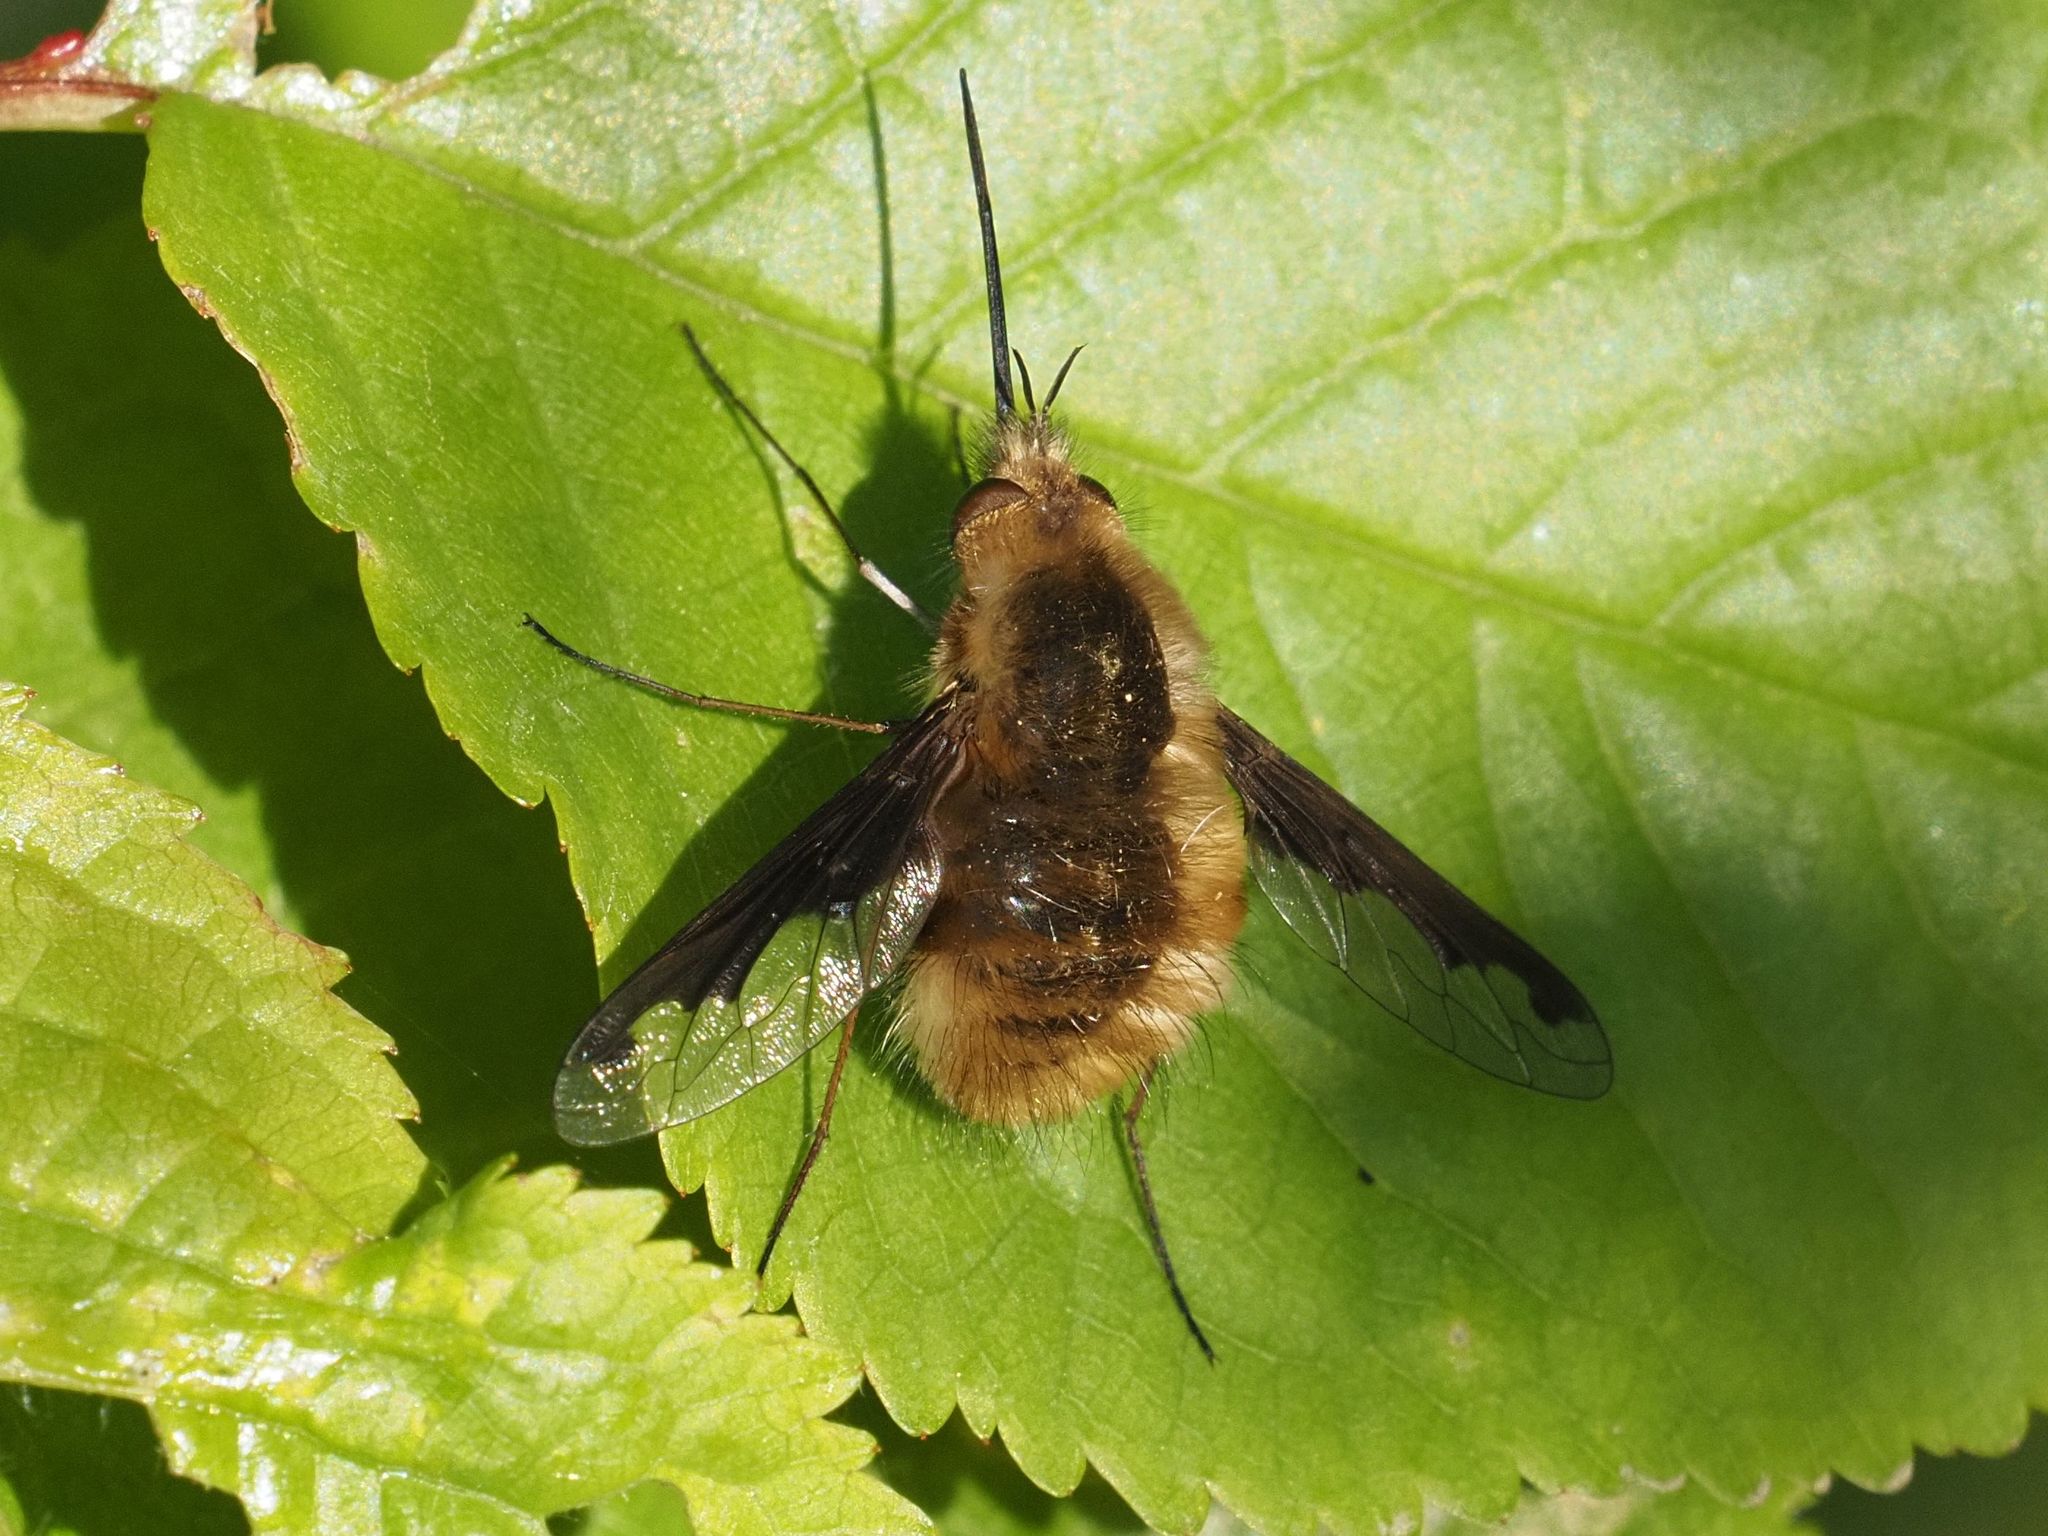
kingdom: Animalia
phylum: Arthropoda
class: Insecta
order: Diptera
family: Bombyliidae
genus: Bombylius
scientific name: Bombylius major
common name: Bee fly
